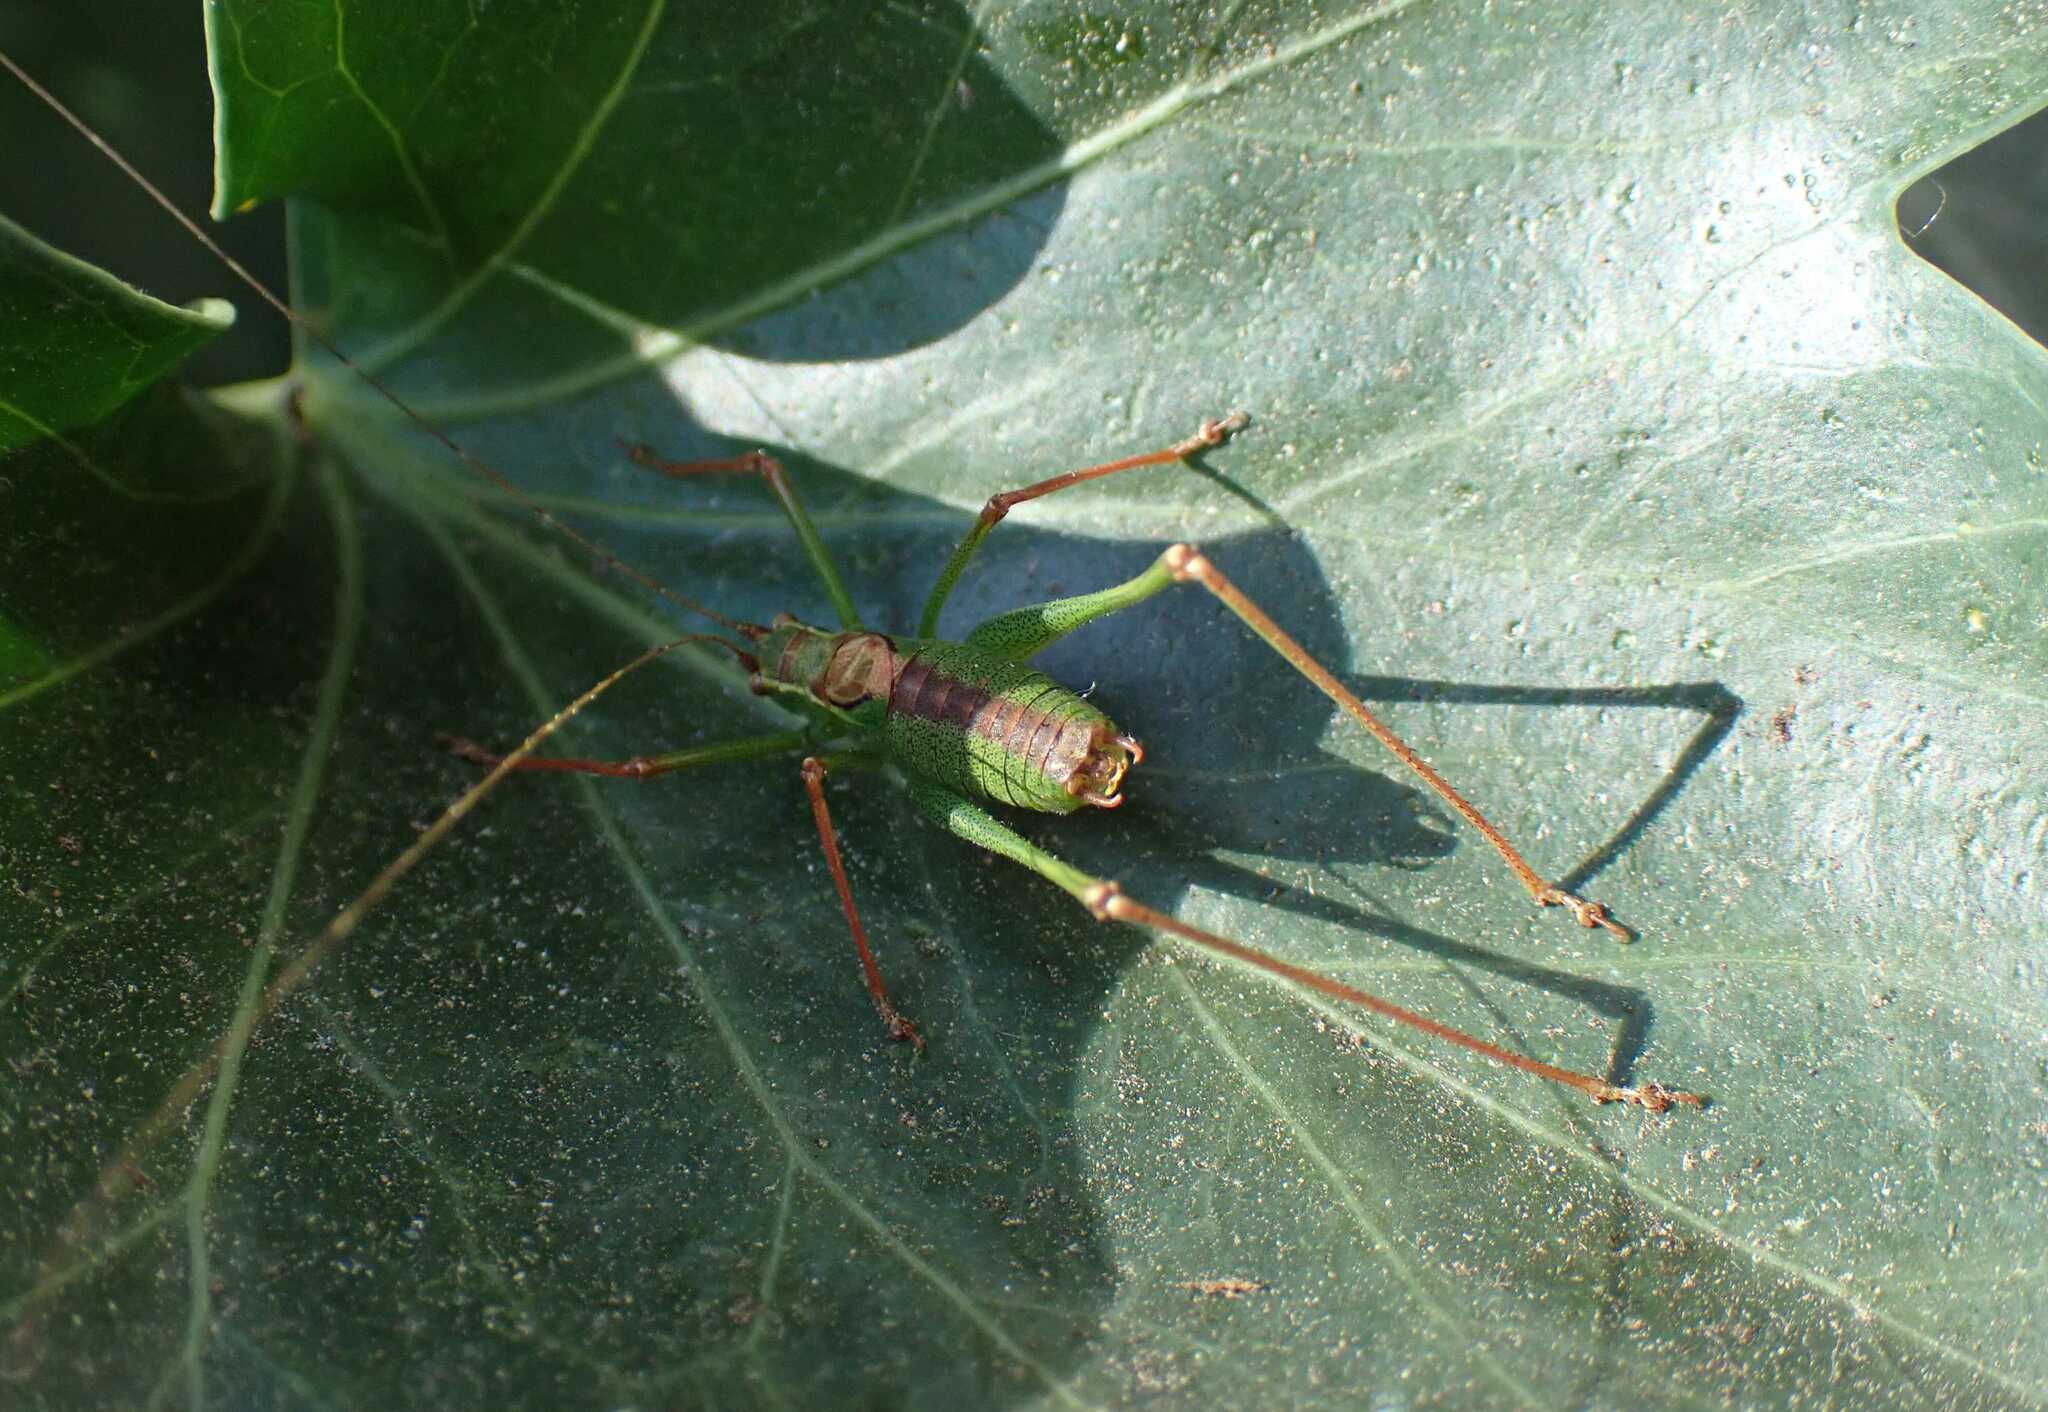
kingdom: Animalia
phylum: Arthropoda
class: Insecta
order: Orthoptera
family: Tettigoniidae
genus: Leptophyes
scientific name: Leptophyes punctatissima
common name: Speckled bush-cricket
